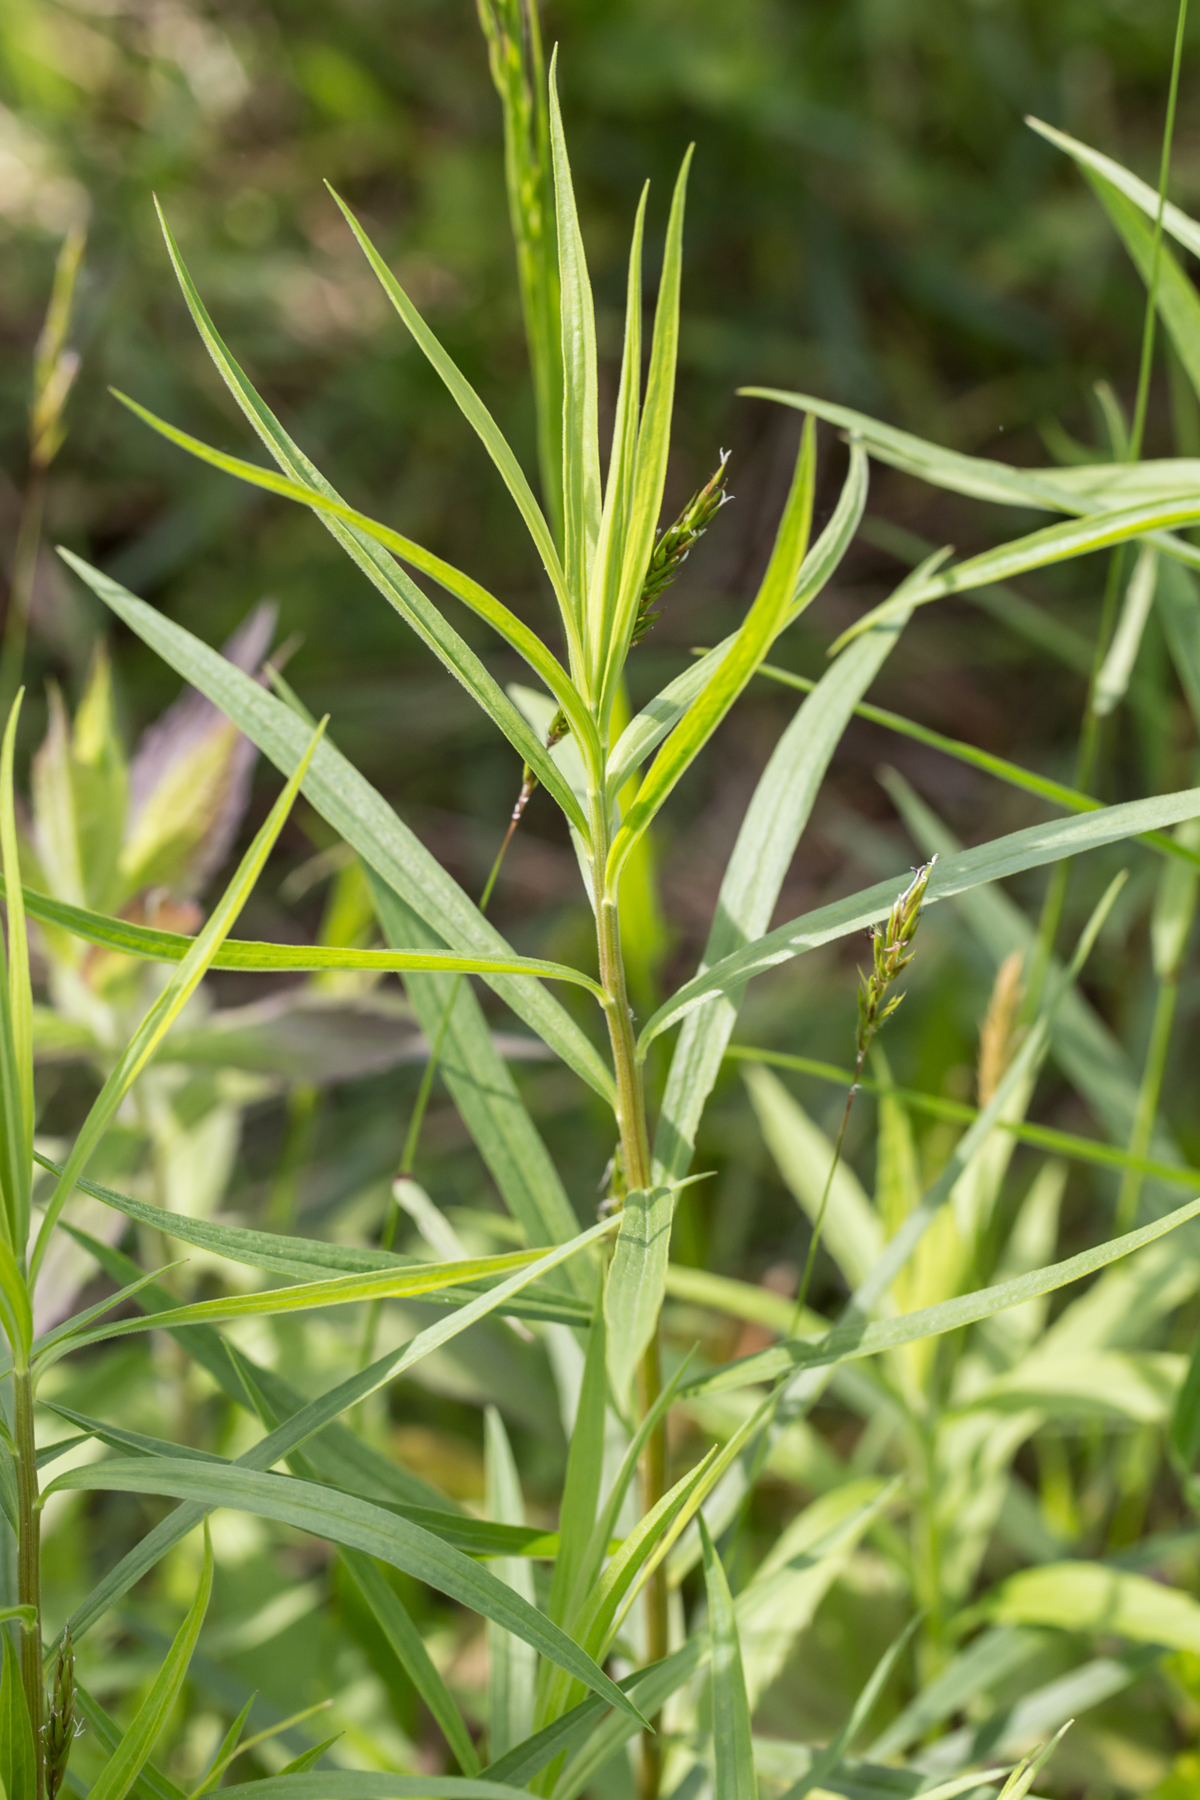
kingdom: Plantae
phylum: Tracheophyta
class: Magnoliopsida
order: Asterales
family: Asteraceae
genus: Euthamia
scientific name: Euthamia graminifolia
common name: Common goldentop
